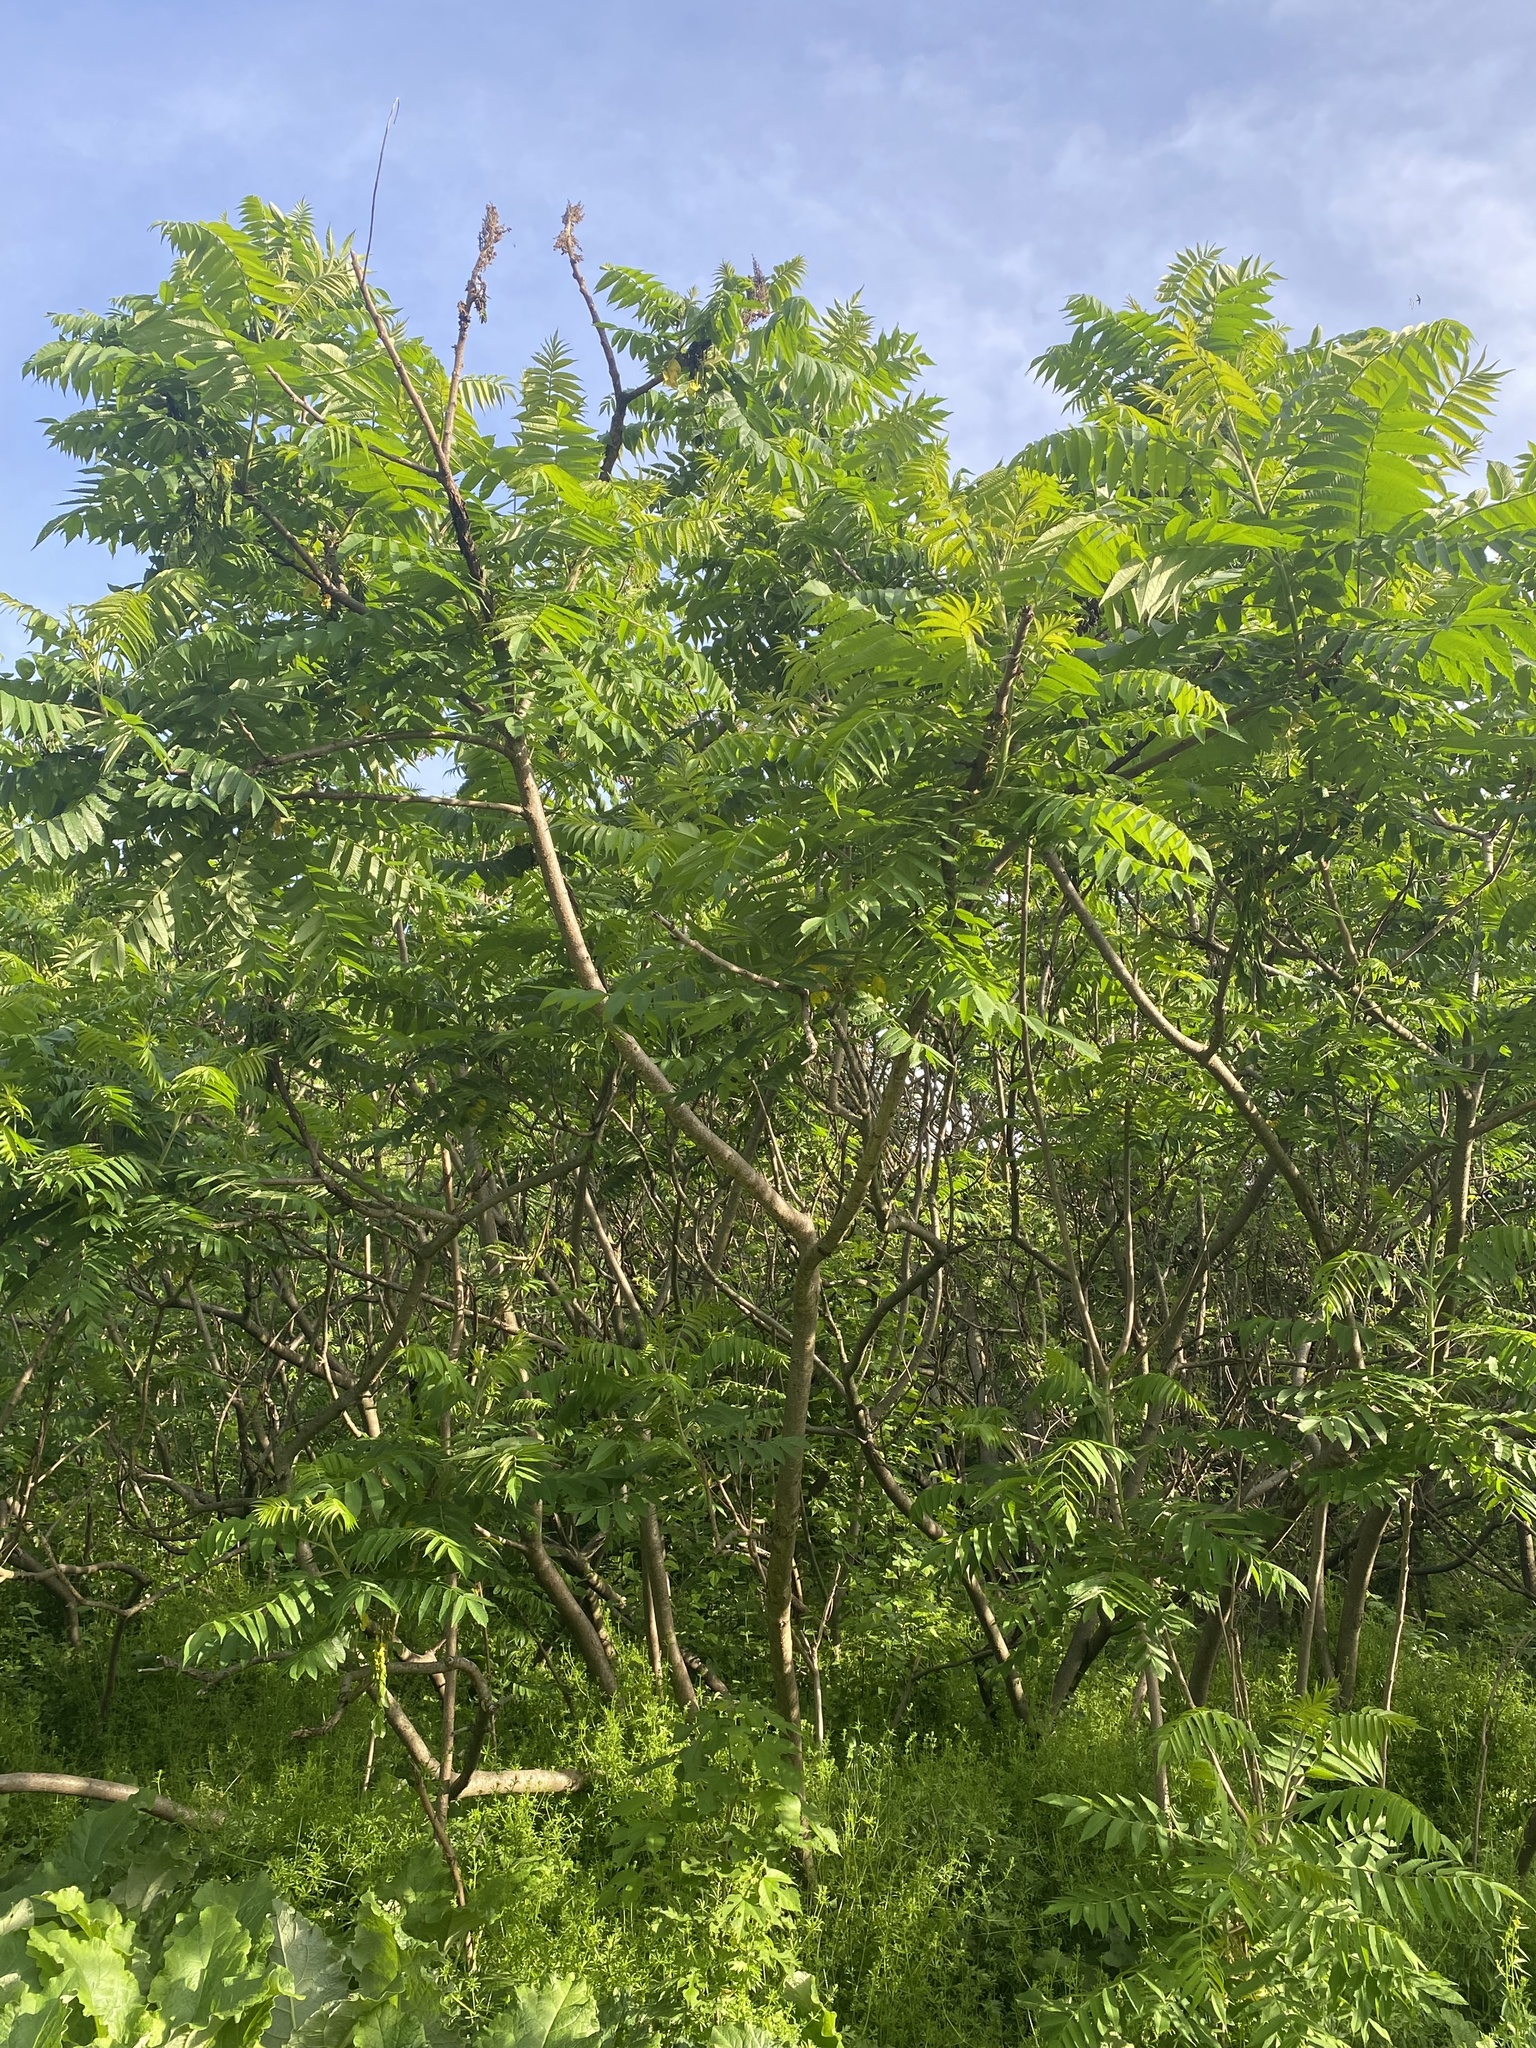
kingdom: Plantae
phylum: Tracheophyta
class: Magnoliopsida
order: Sapindales
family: Anacardiaceae
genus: Rhus
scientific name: Rhus typhina
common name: Staghorn sumac
